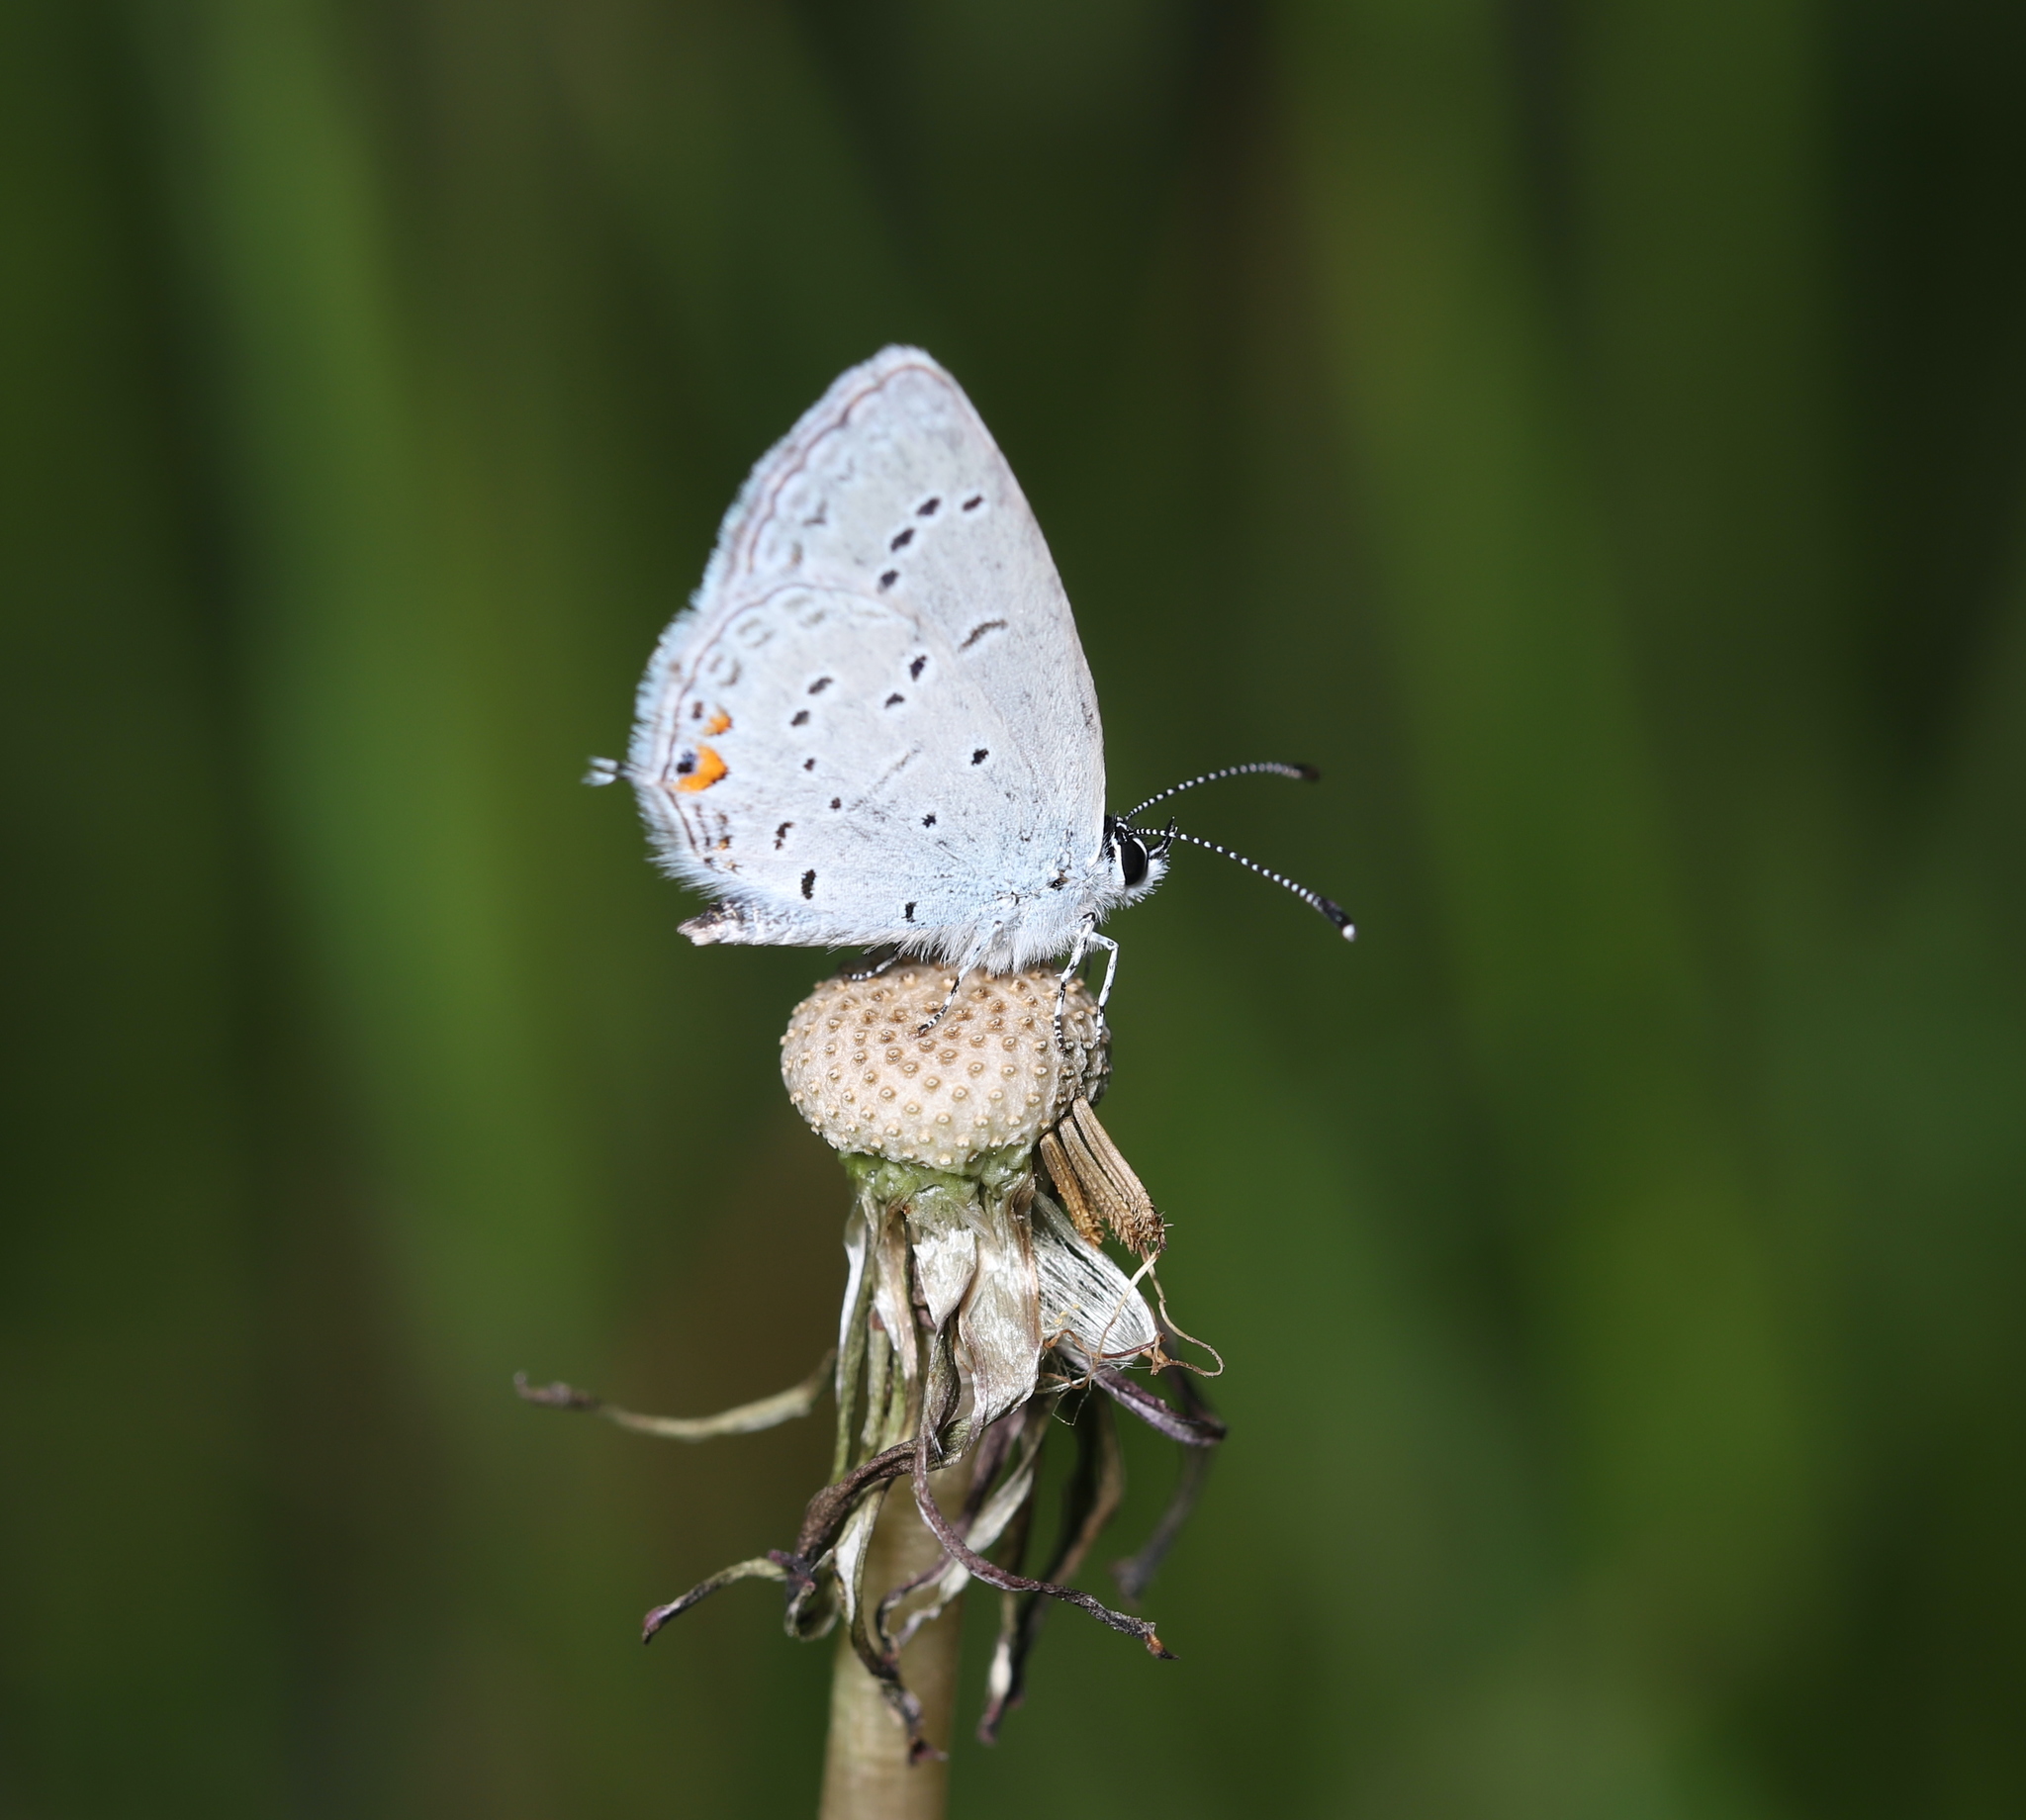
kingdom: Animalia
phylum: Arthropoda
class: Insecta
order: Lepidoptera
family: Lycaenidae
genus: Elkalyce
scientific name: Elkalyce comyntas
